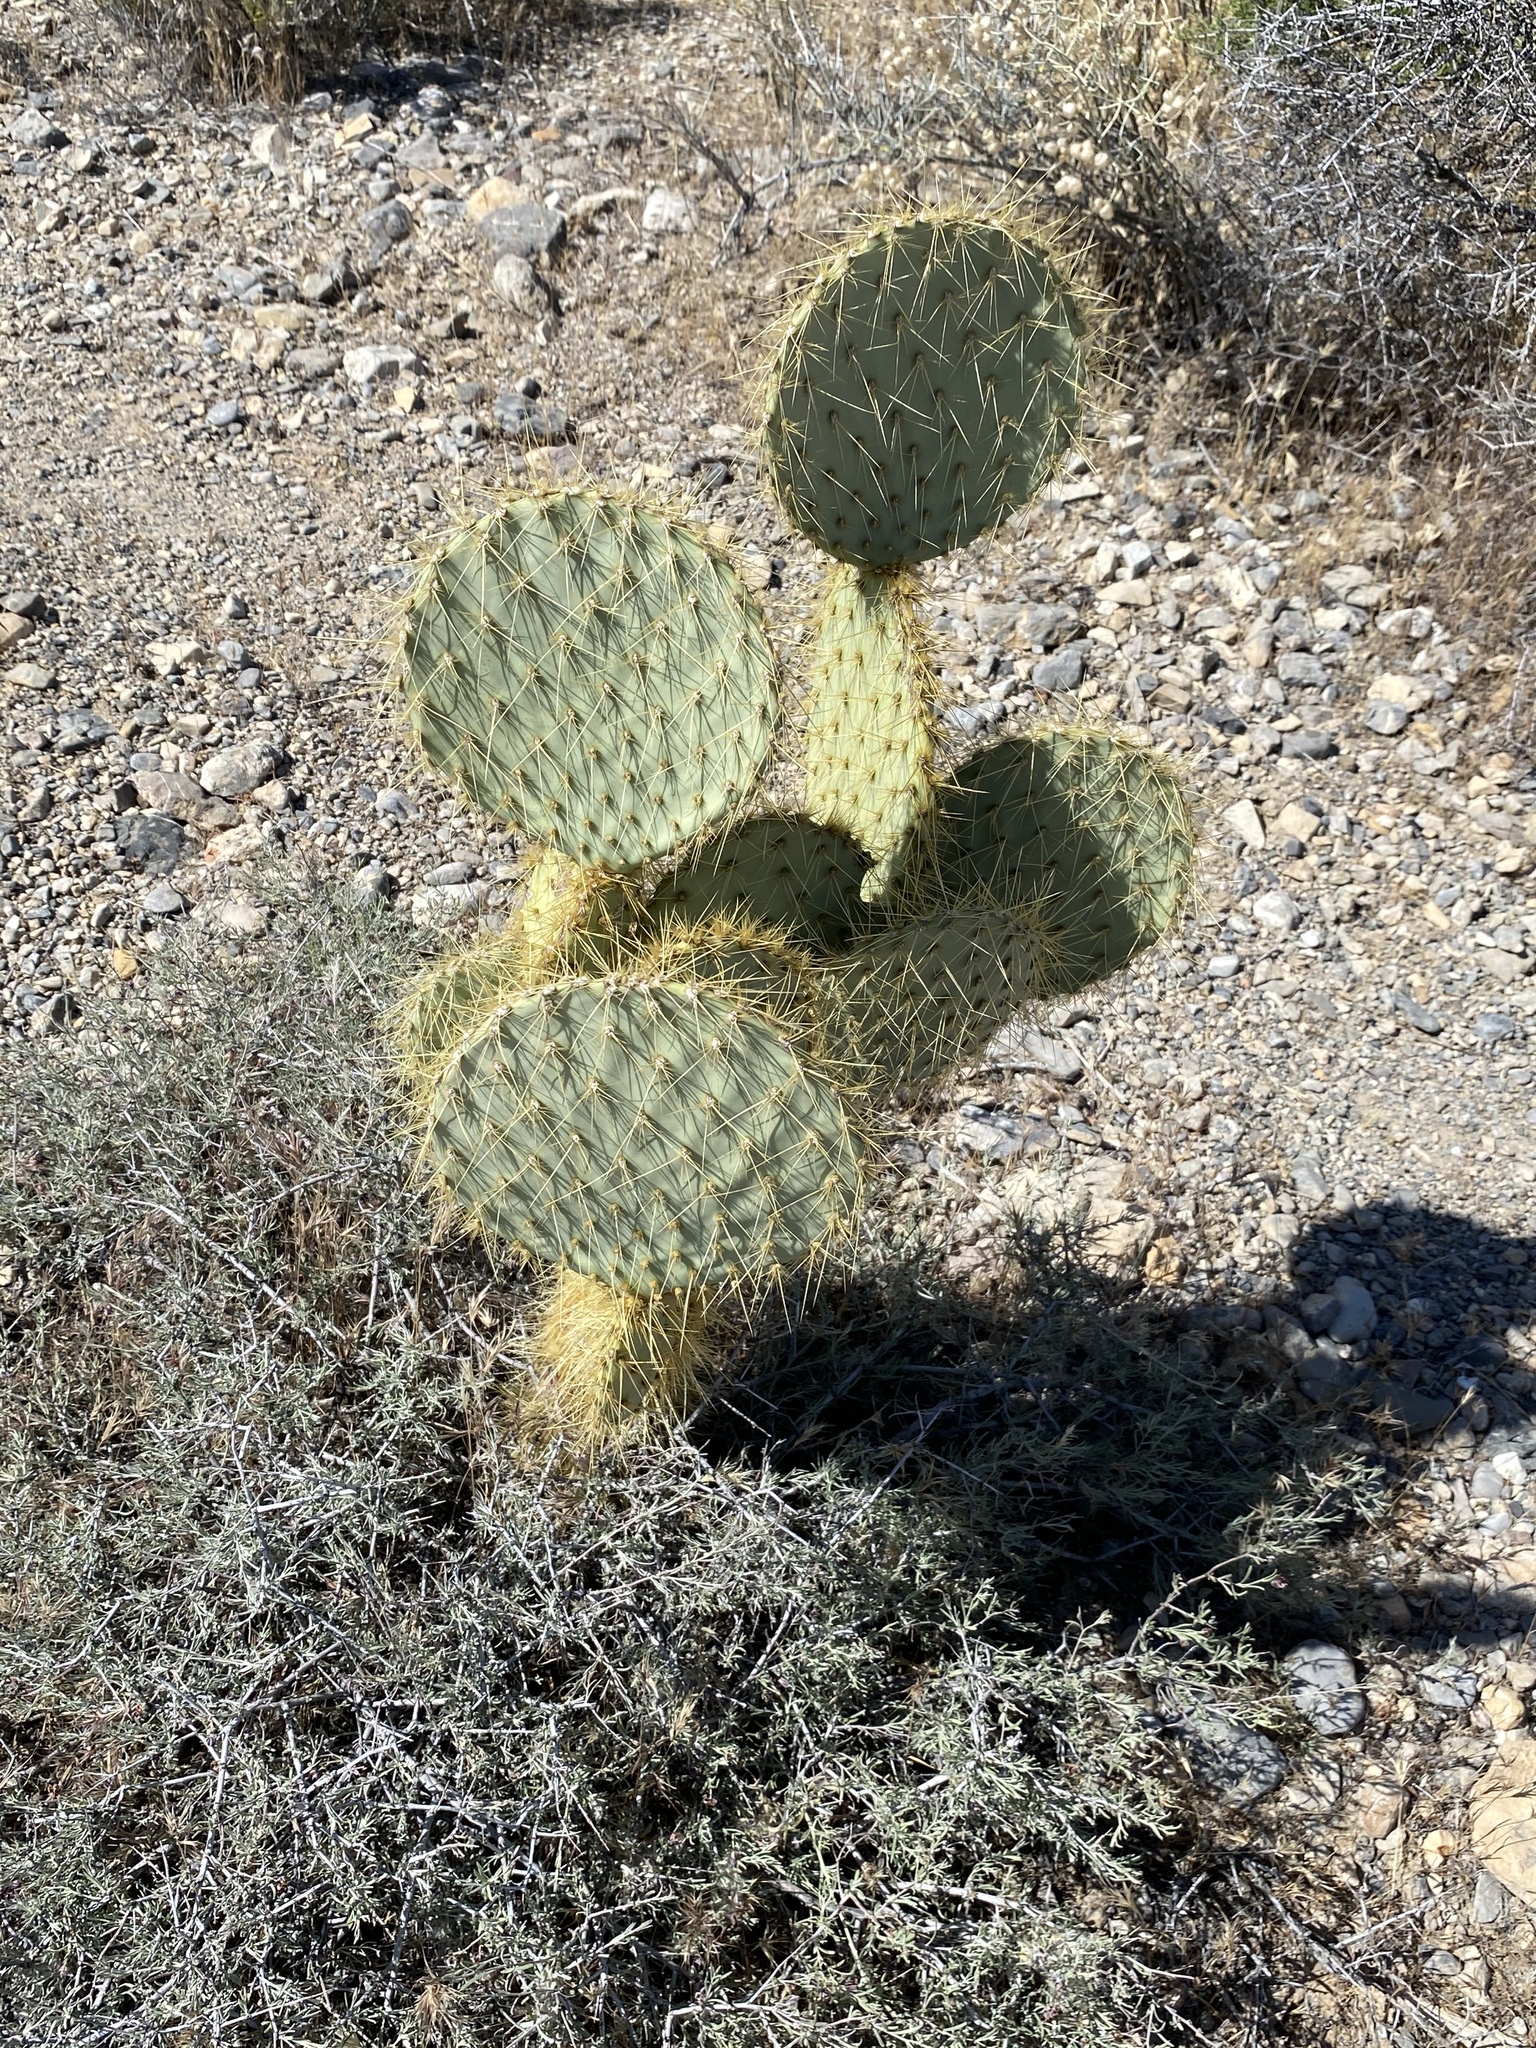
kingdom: Plantae
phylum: Tracheophyta
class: Magnoliopsida
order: Caryophyllales
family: Cactaceae
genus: Opuntia
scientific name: Opuntia chlorotica
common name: Dollar-joint prickly-pear
